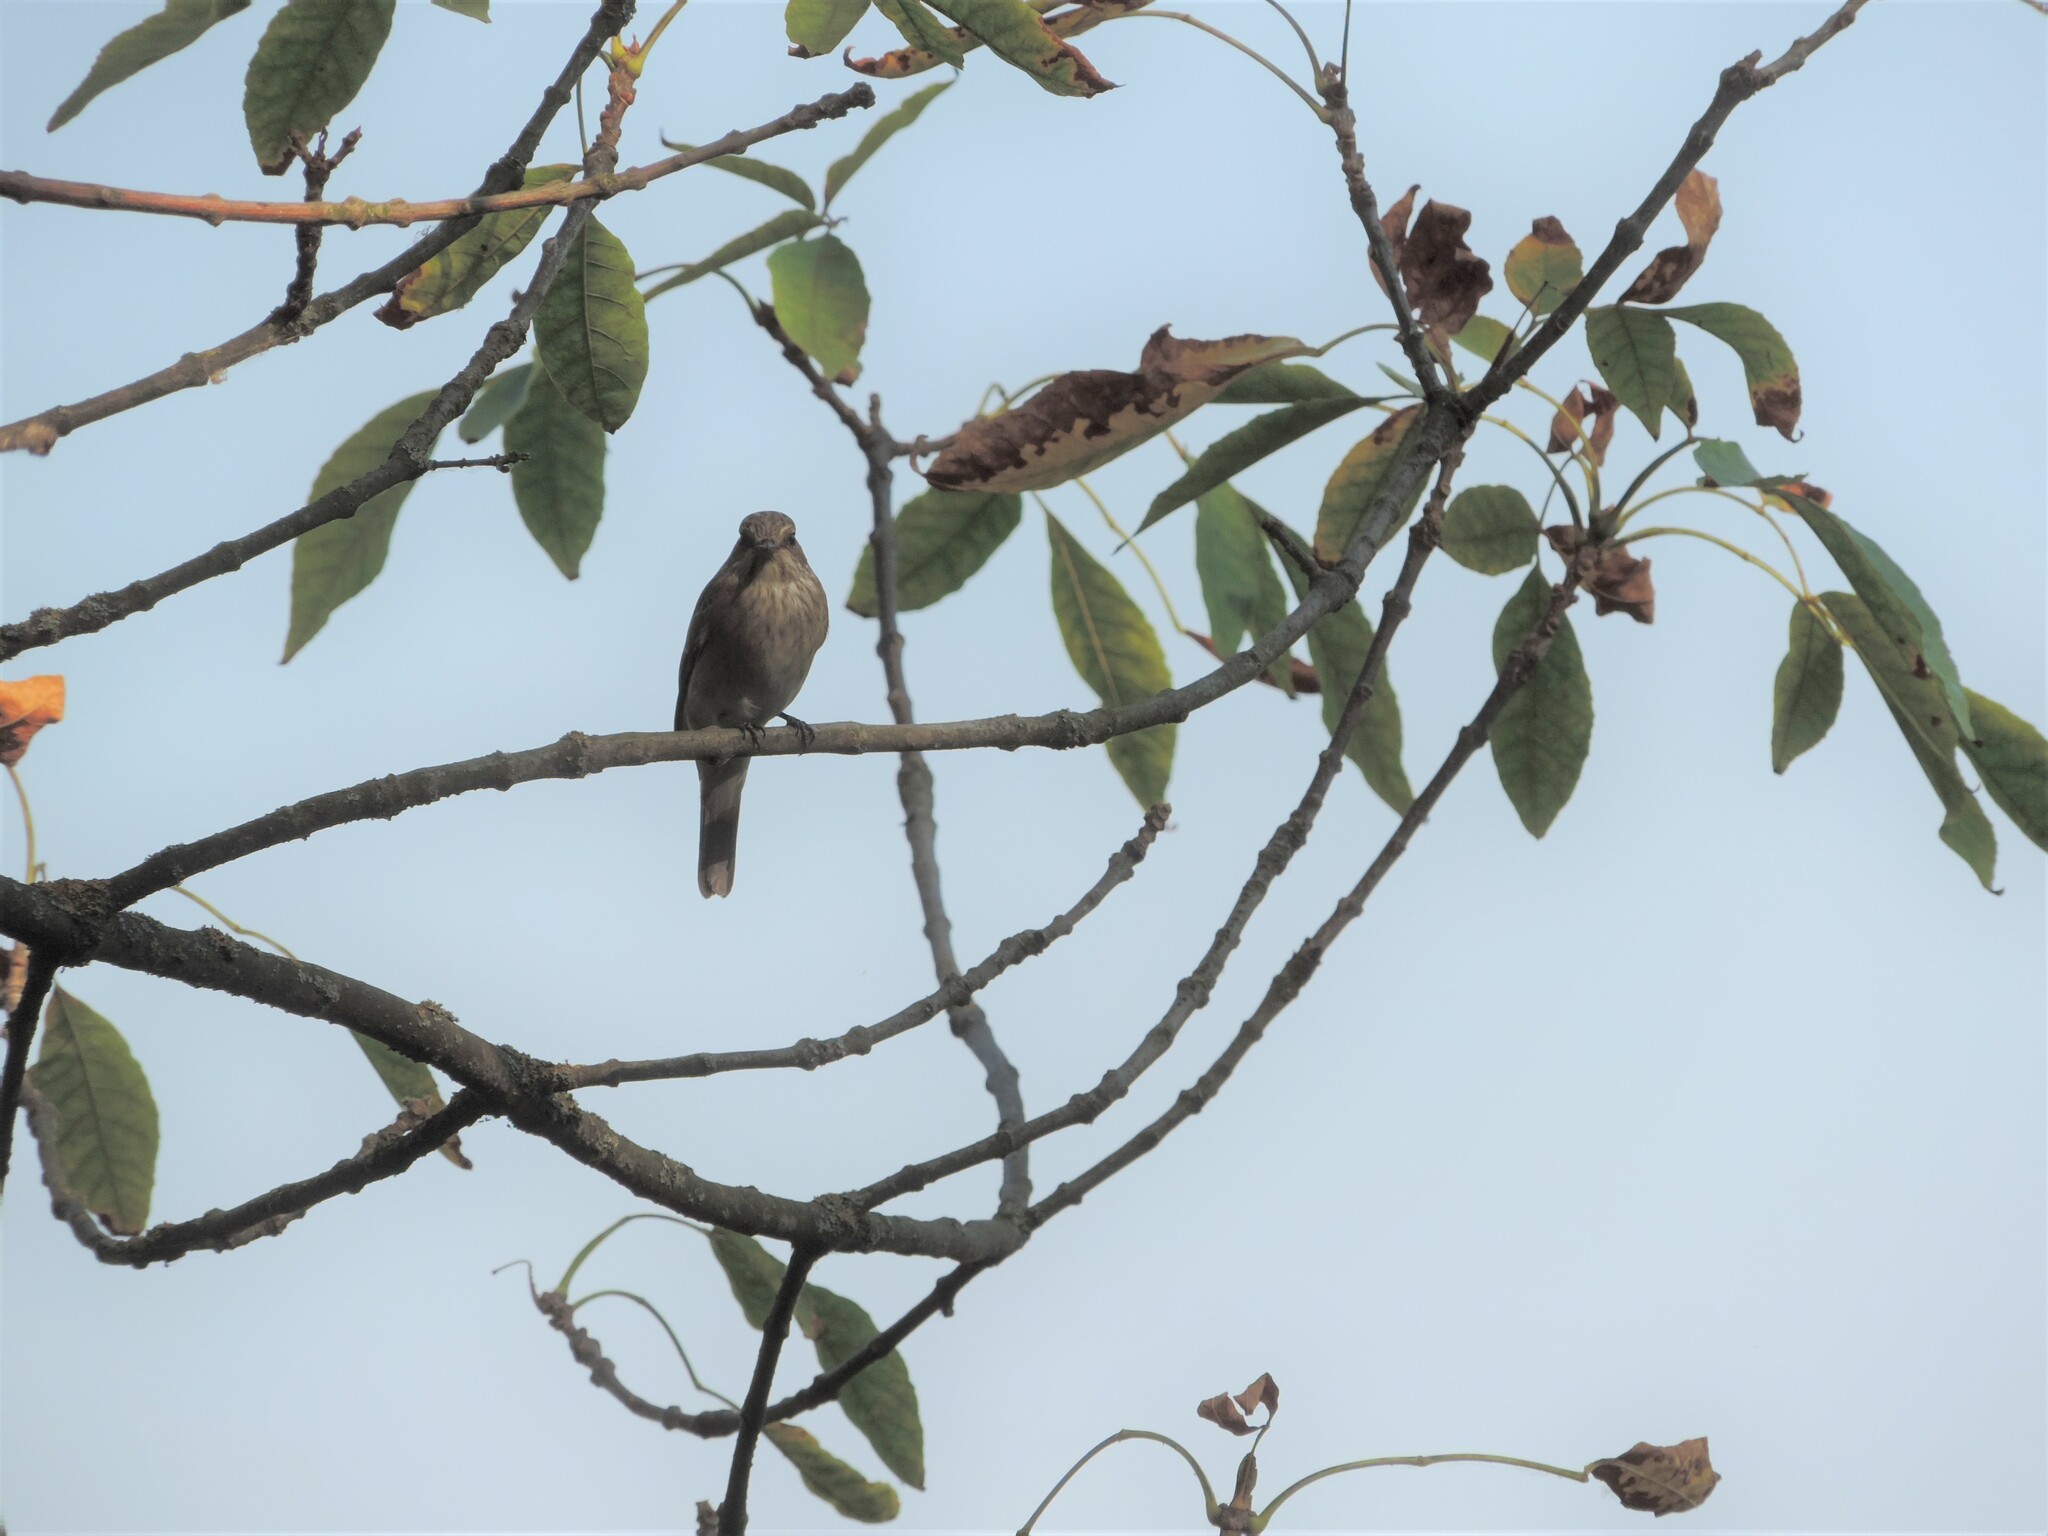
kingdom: Animalia
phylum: Chordata
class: Aves
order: Passeriformes
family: Muscicapidae
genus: Muscicapa
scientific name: Muscicapa striata
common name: Spotted flycatcher
